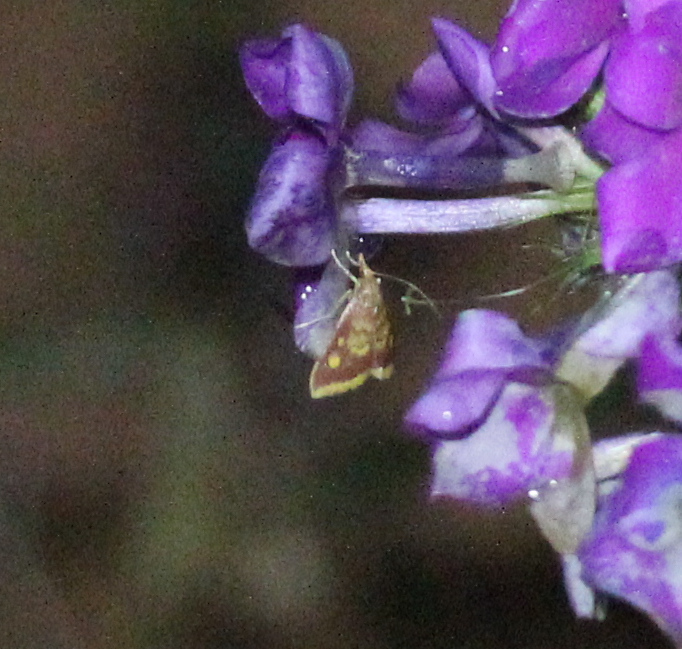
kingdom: Animalia
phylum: Arthropoda
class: Insecta
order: Lepidoptera
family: Crambidae
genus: Pyrausta
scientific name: Pyrausta acrionalis
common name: Mint-loving pyrausta moth
